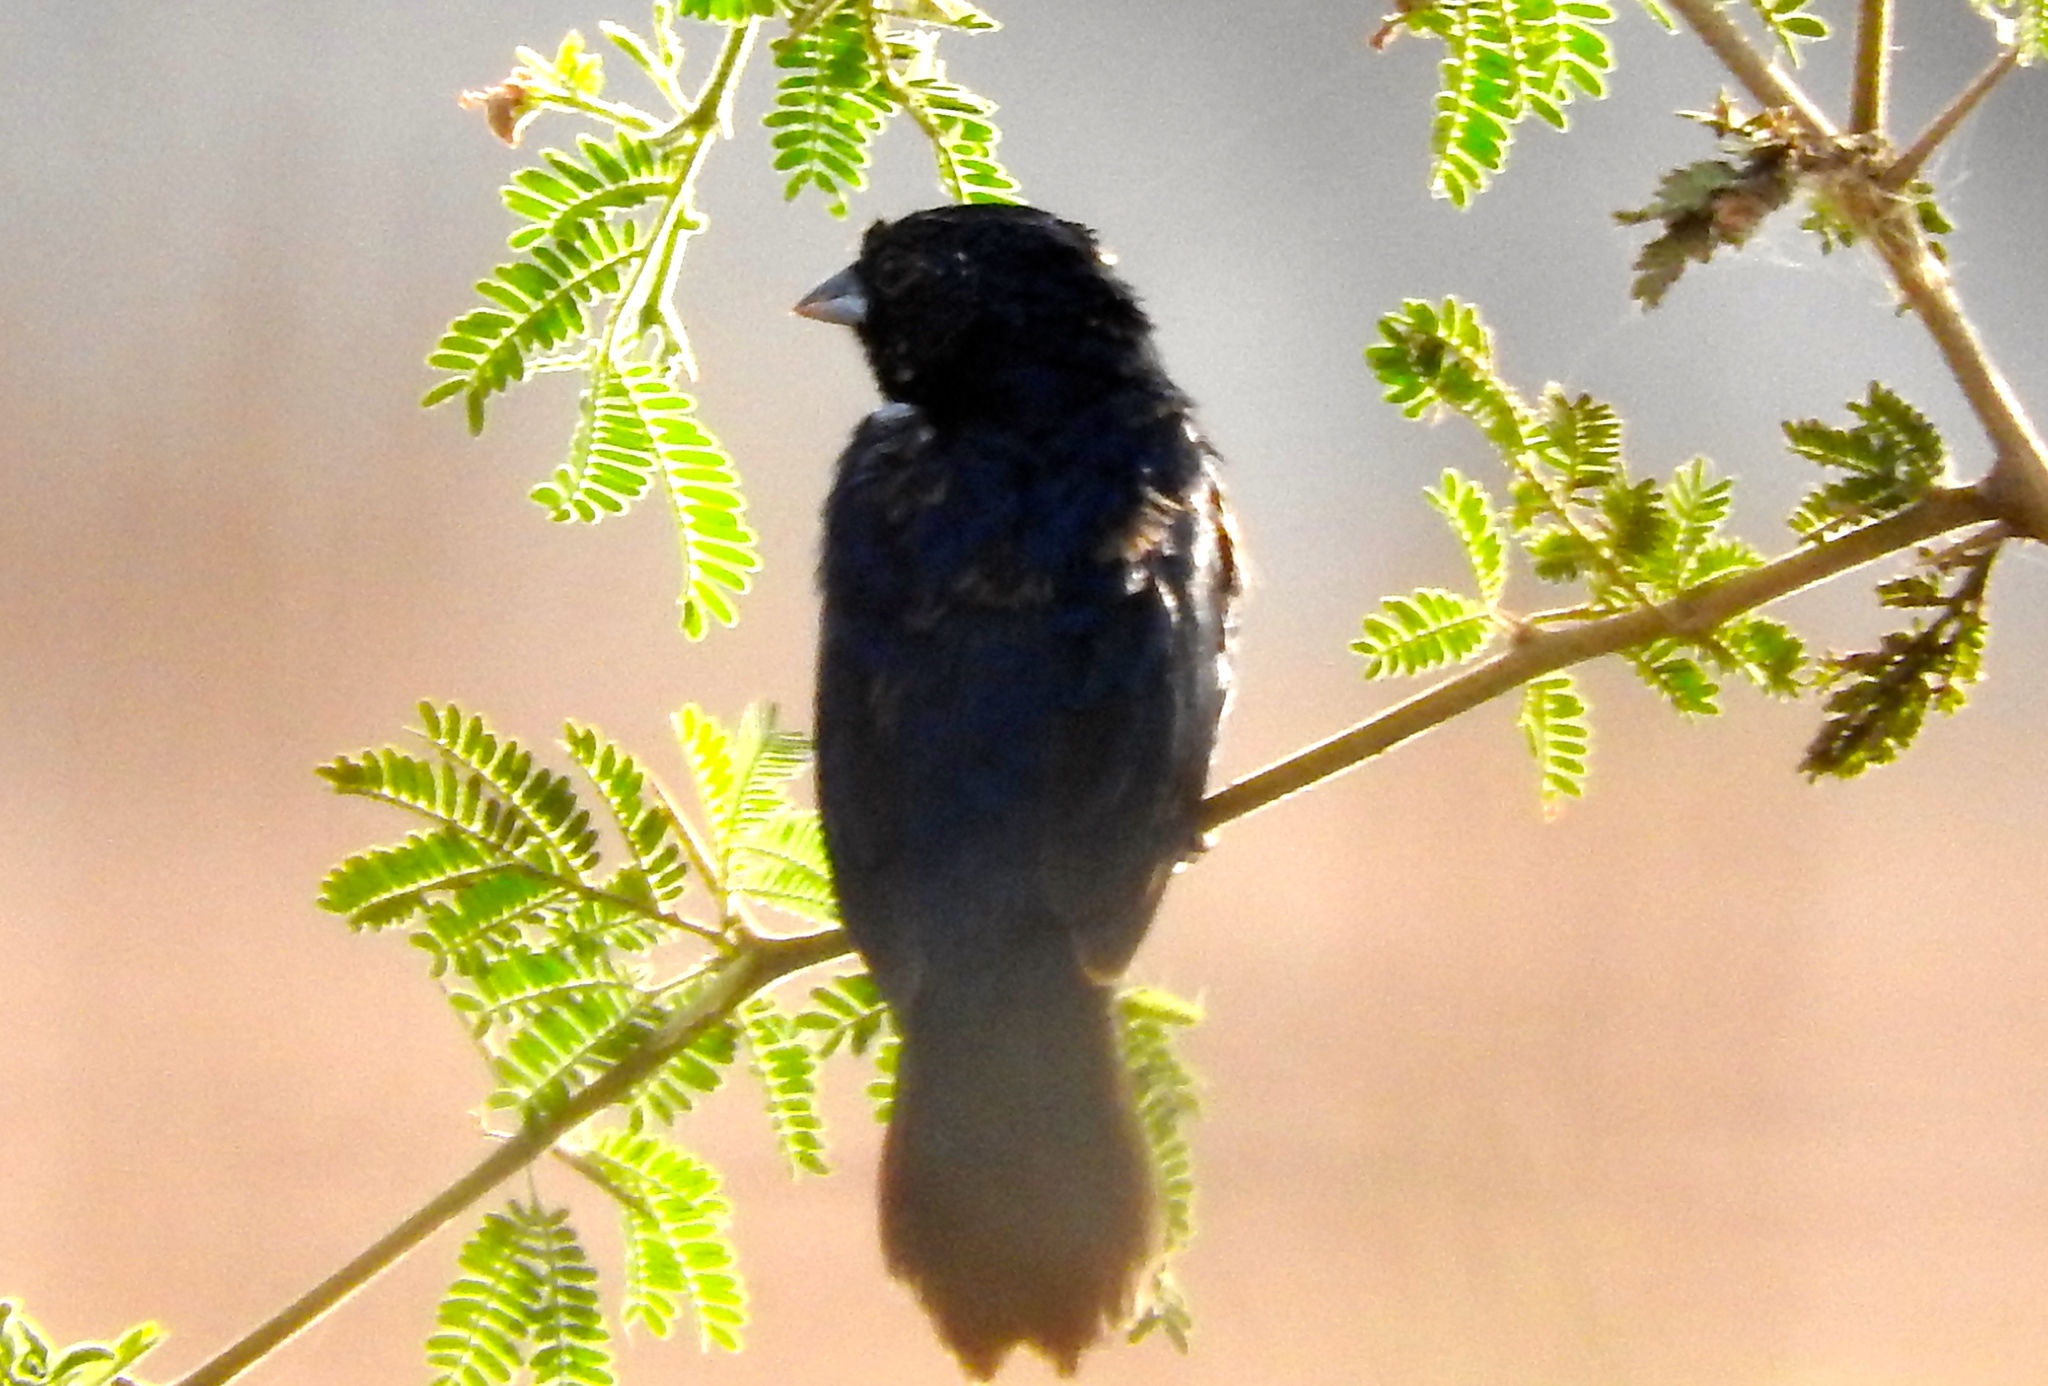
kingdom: Animalia
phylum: Chordata
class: Aves
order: Passeriformes
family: Thraupidae
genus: Volatinia
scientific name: Volatinia jacarina
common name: Blue-black grassquit
